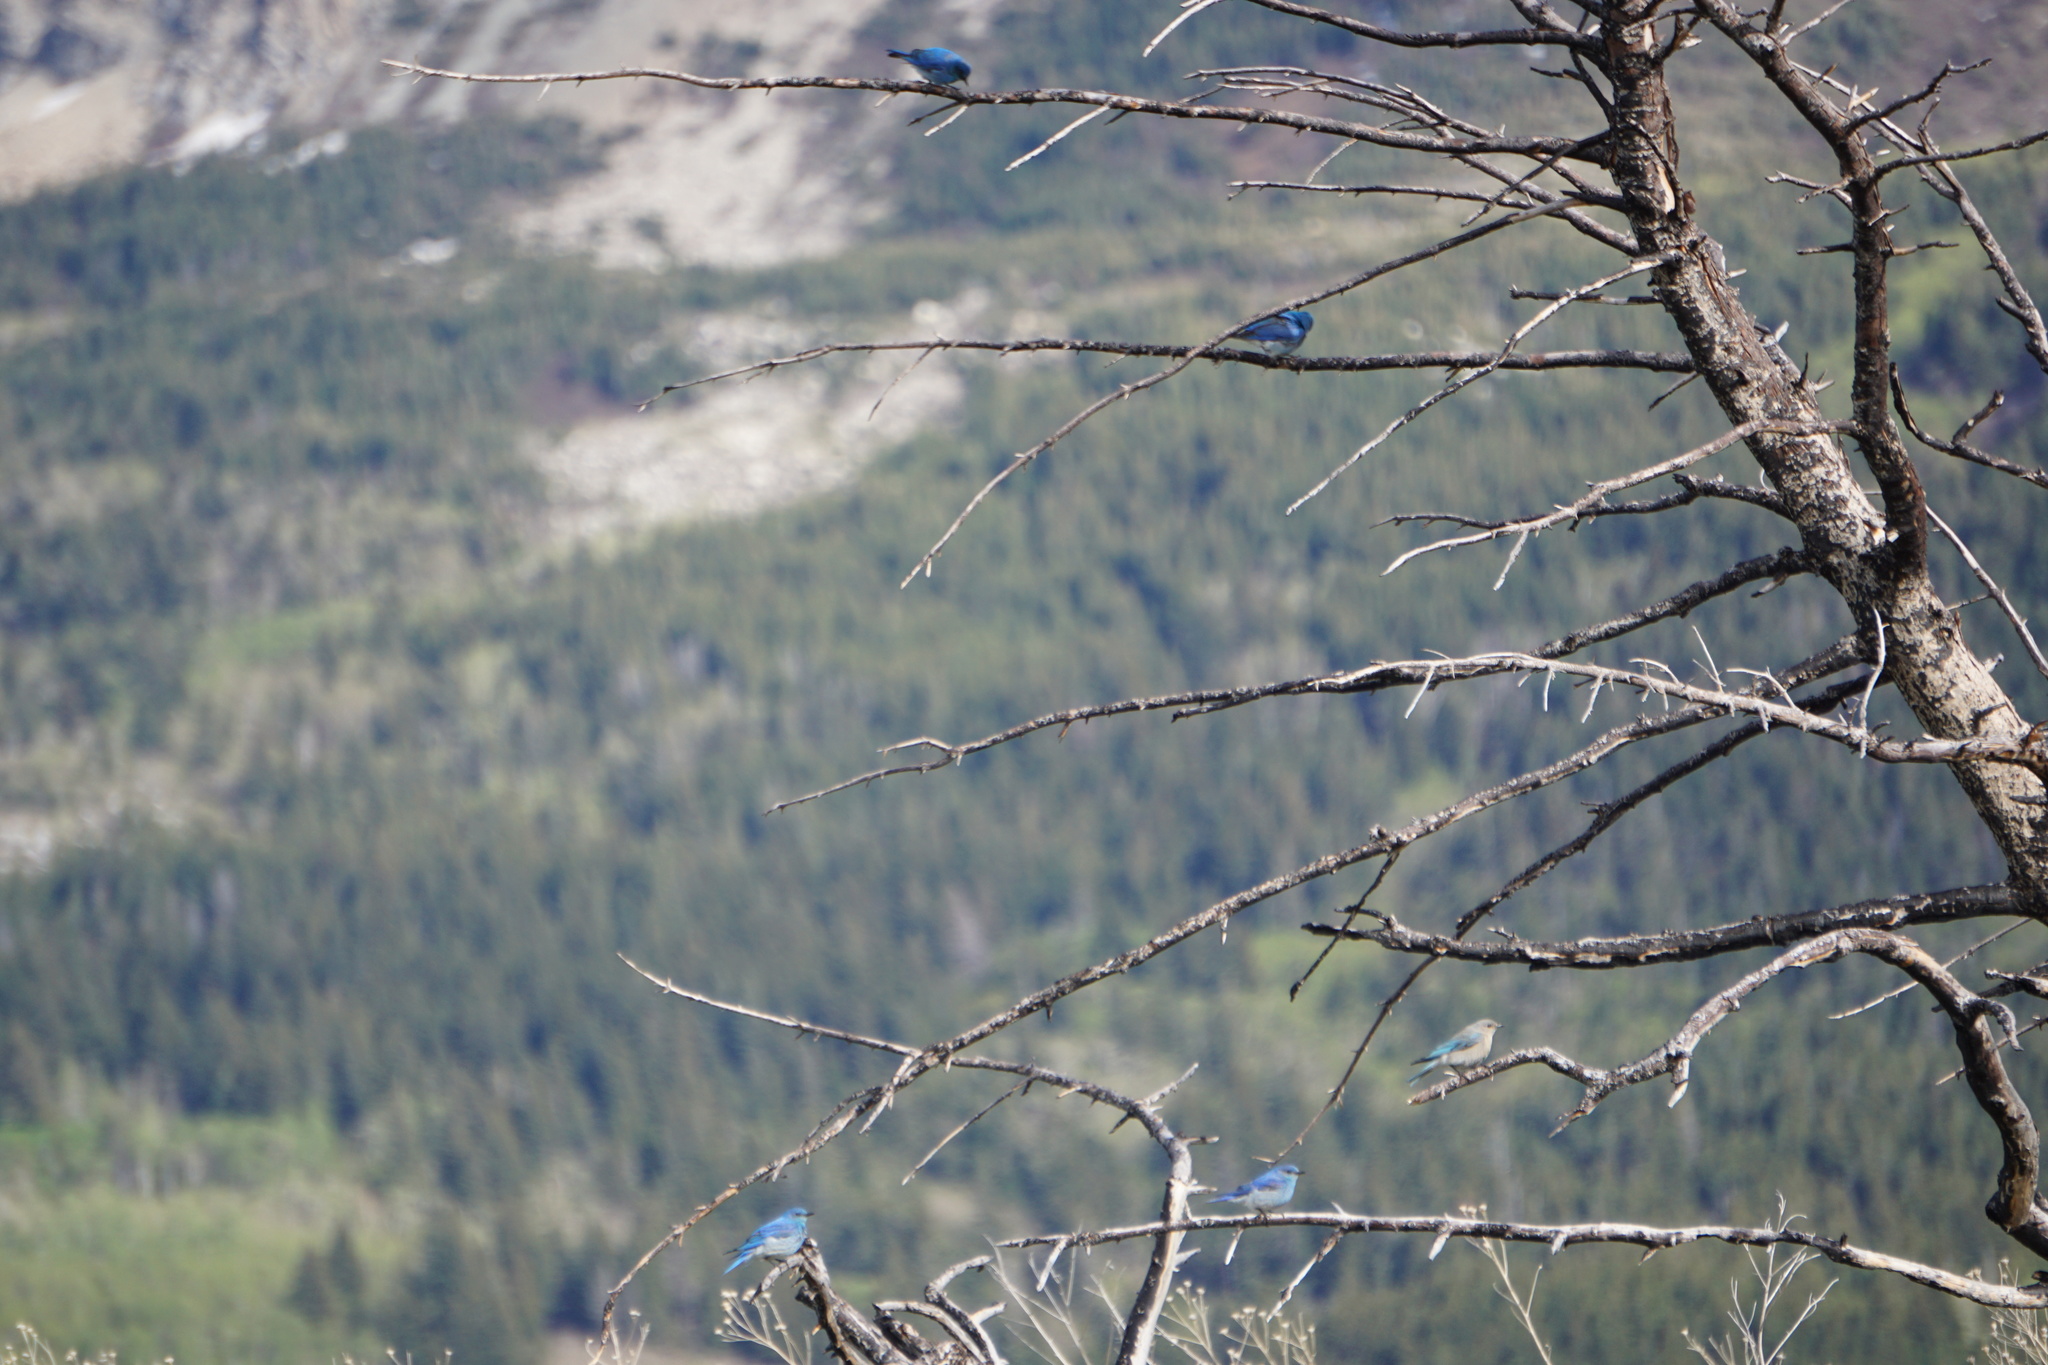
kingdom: Animalia
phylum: Chordata
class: Aves
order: Passeriformes
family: Turdidae
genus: Sialia
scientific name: Sialia currucoides
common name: Mountain bluebird
